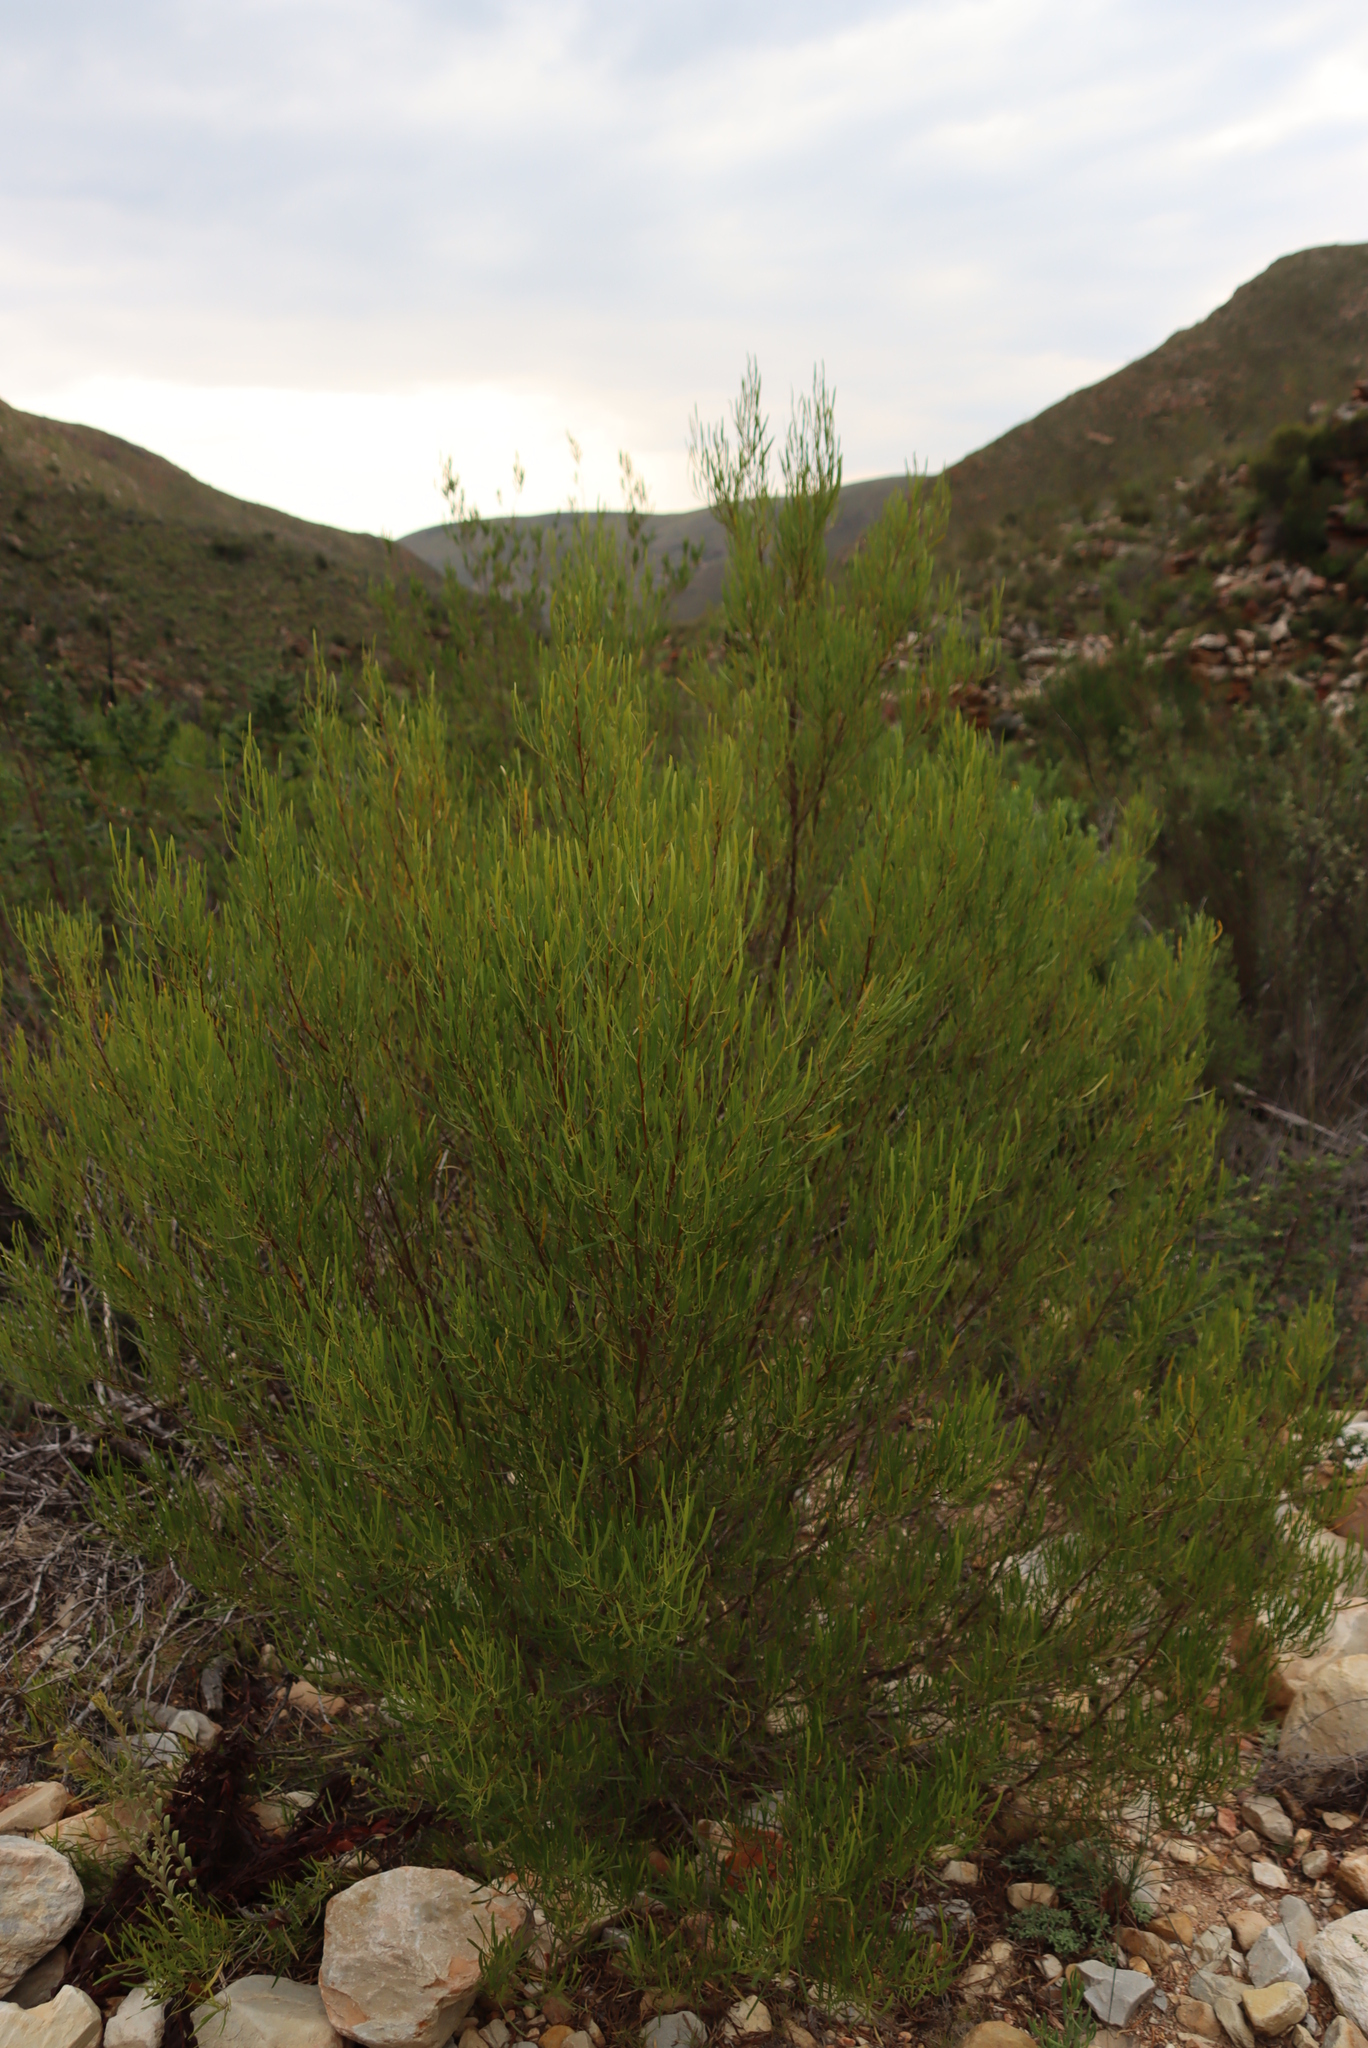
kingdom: Plantae
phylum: Tracheophyta
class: Magnoliopsida
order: Sapindales
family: Sapindaceae
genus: Dodonaea
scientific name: Dodonaea viscosa
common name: Hopbush
